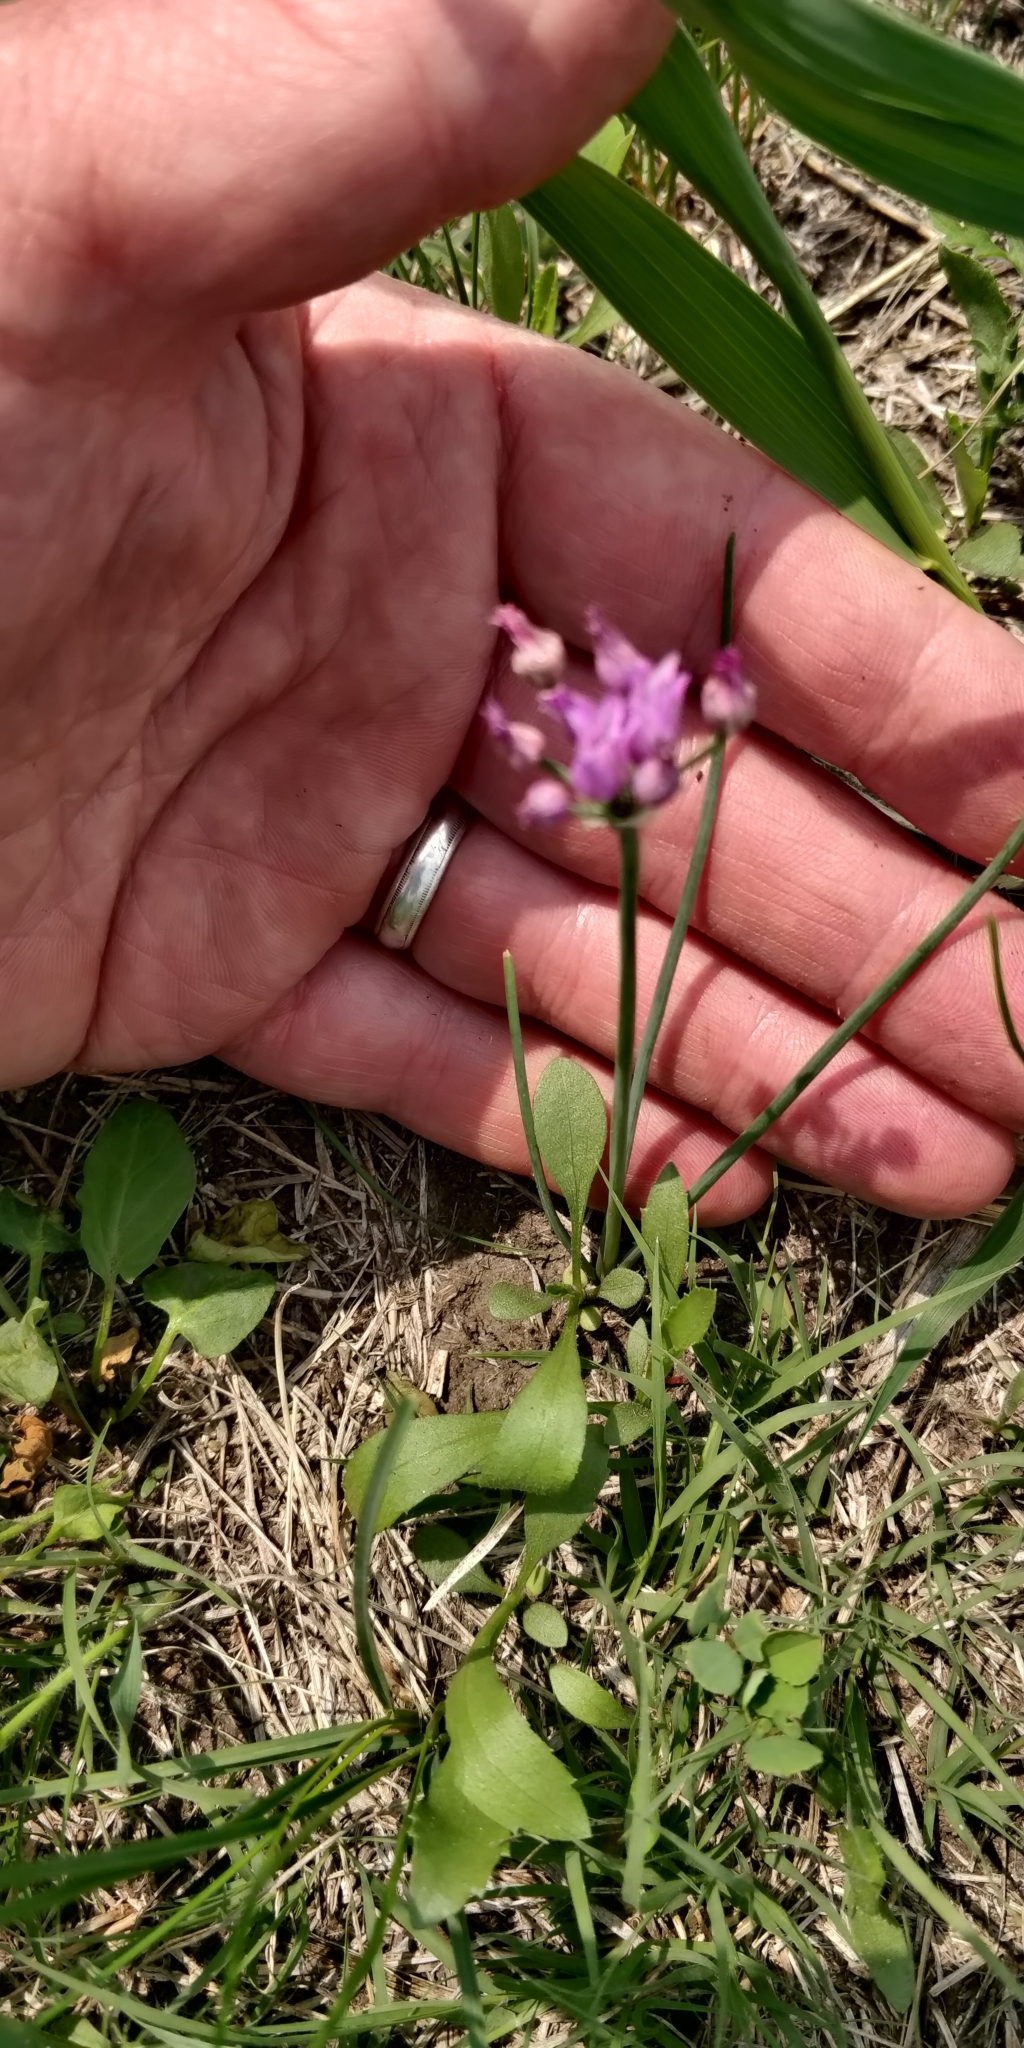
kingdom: Plantae
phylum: Tracheophyta
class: Liliopsida
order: Asparagales
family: Amaryllidaceae
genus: Allium
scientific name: Allium perdulce
